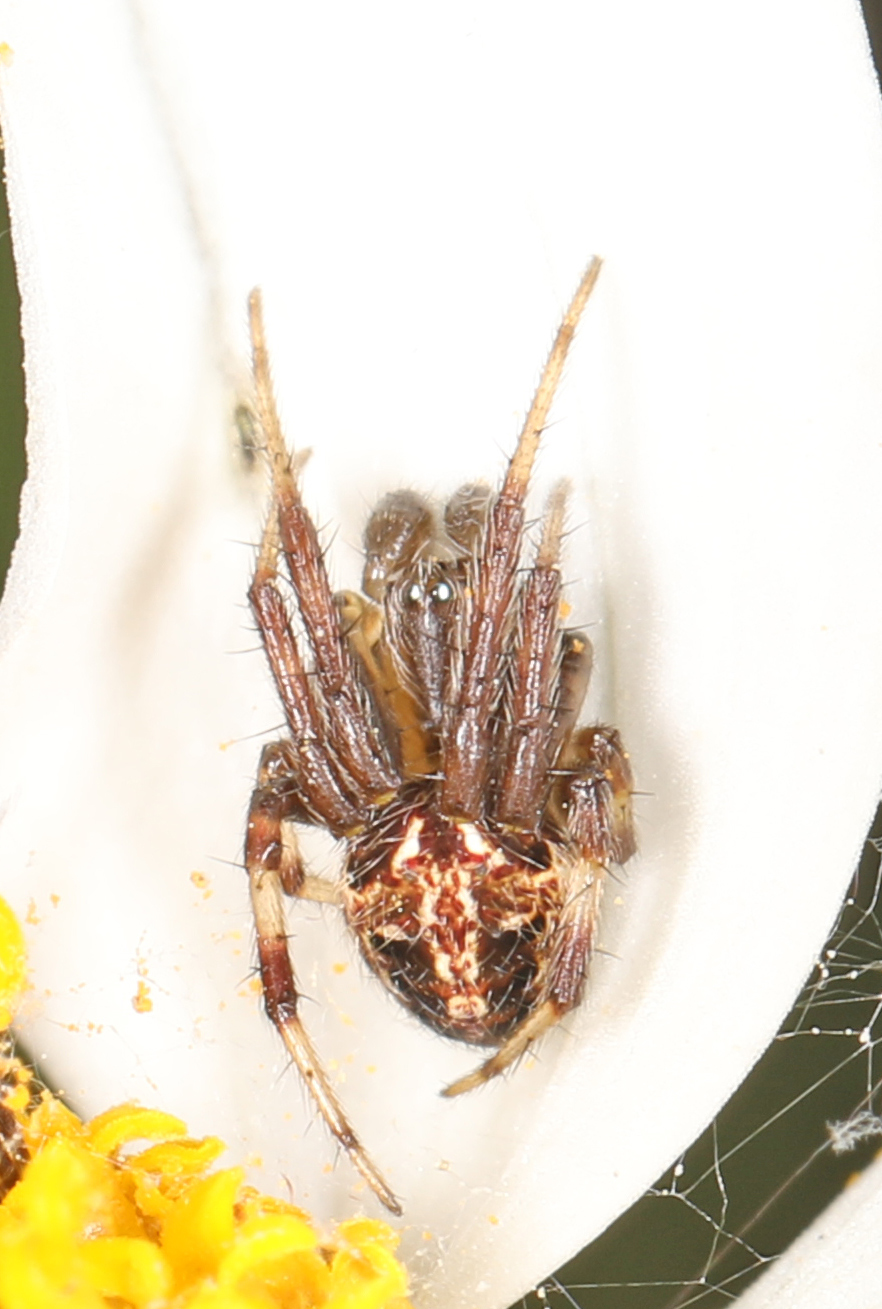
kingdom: Animalia
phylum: Arthropoda
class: Arachnida
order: Araneae
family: Araneidae
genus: Neoscona
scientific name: Neoscona arabesca
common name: Orb weavers
